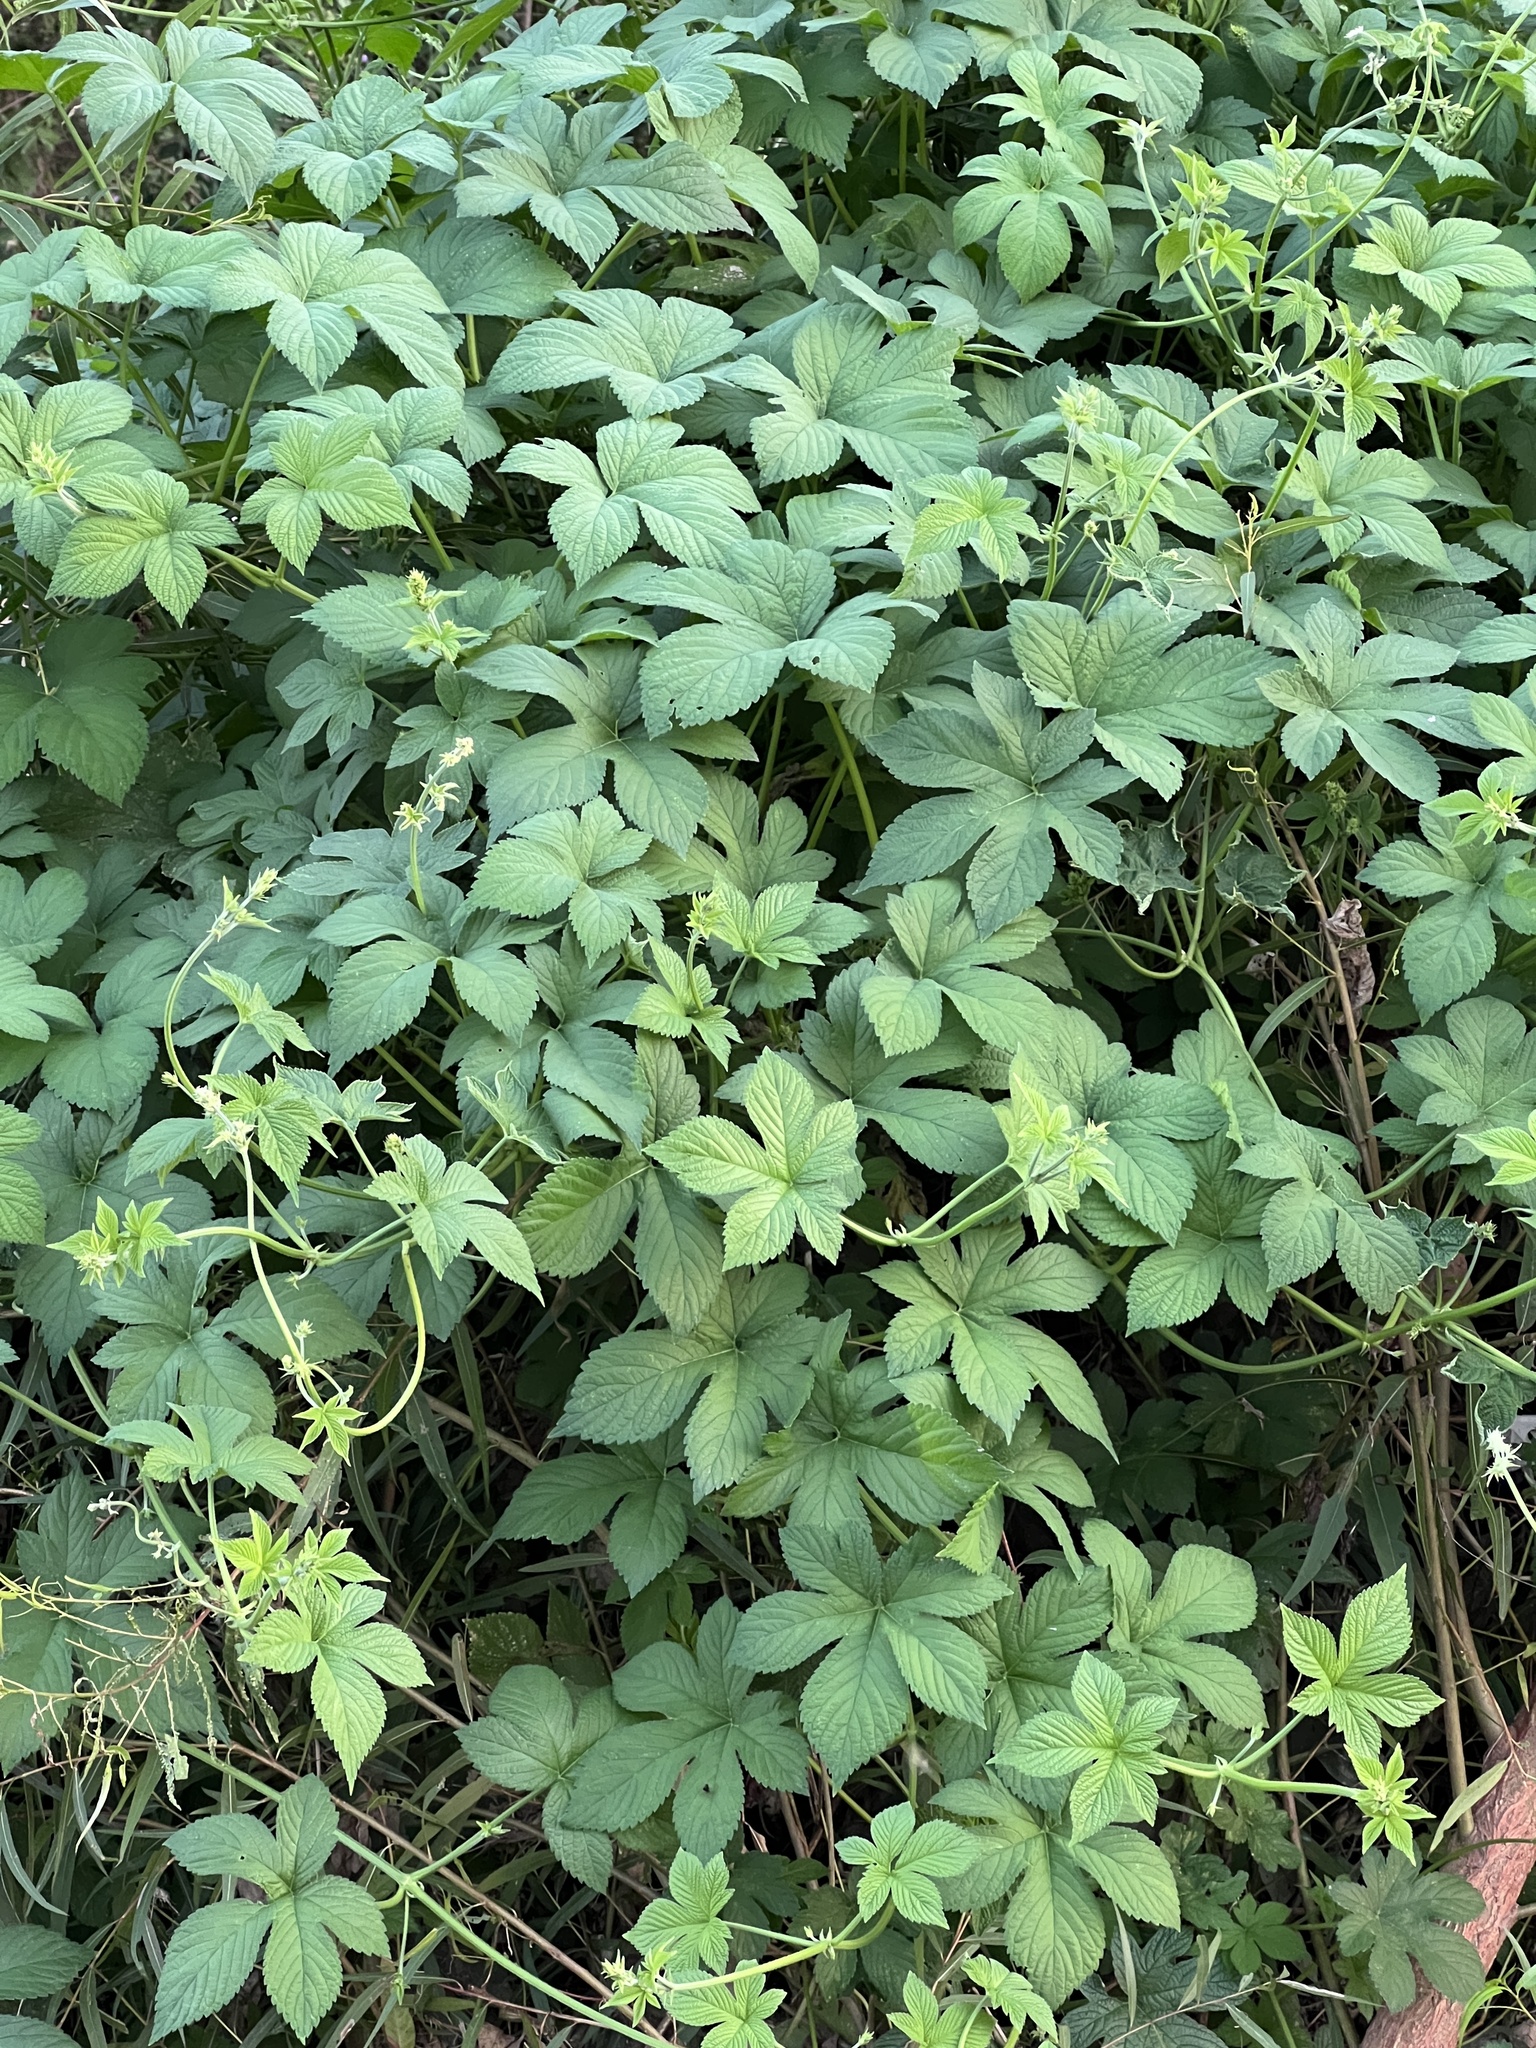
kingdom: Plantae
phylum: Tracheophyta
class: Magnoliopsida
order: Rosales
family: Cannabaceae
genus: Humulus
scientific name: Humulus scandens
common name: Japanese hop
